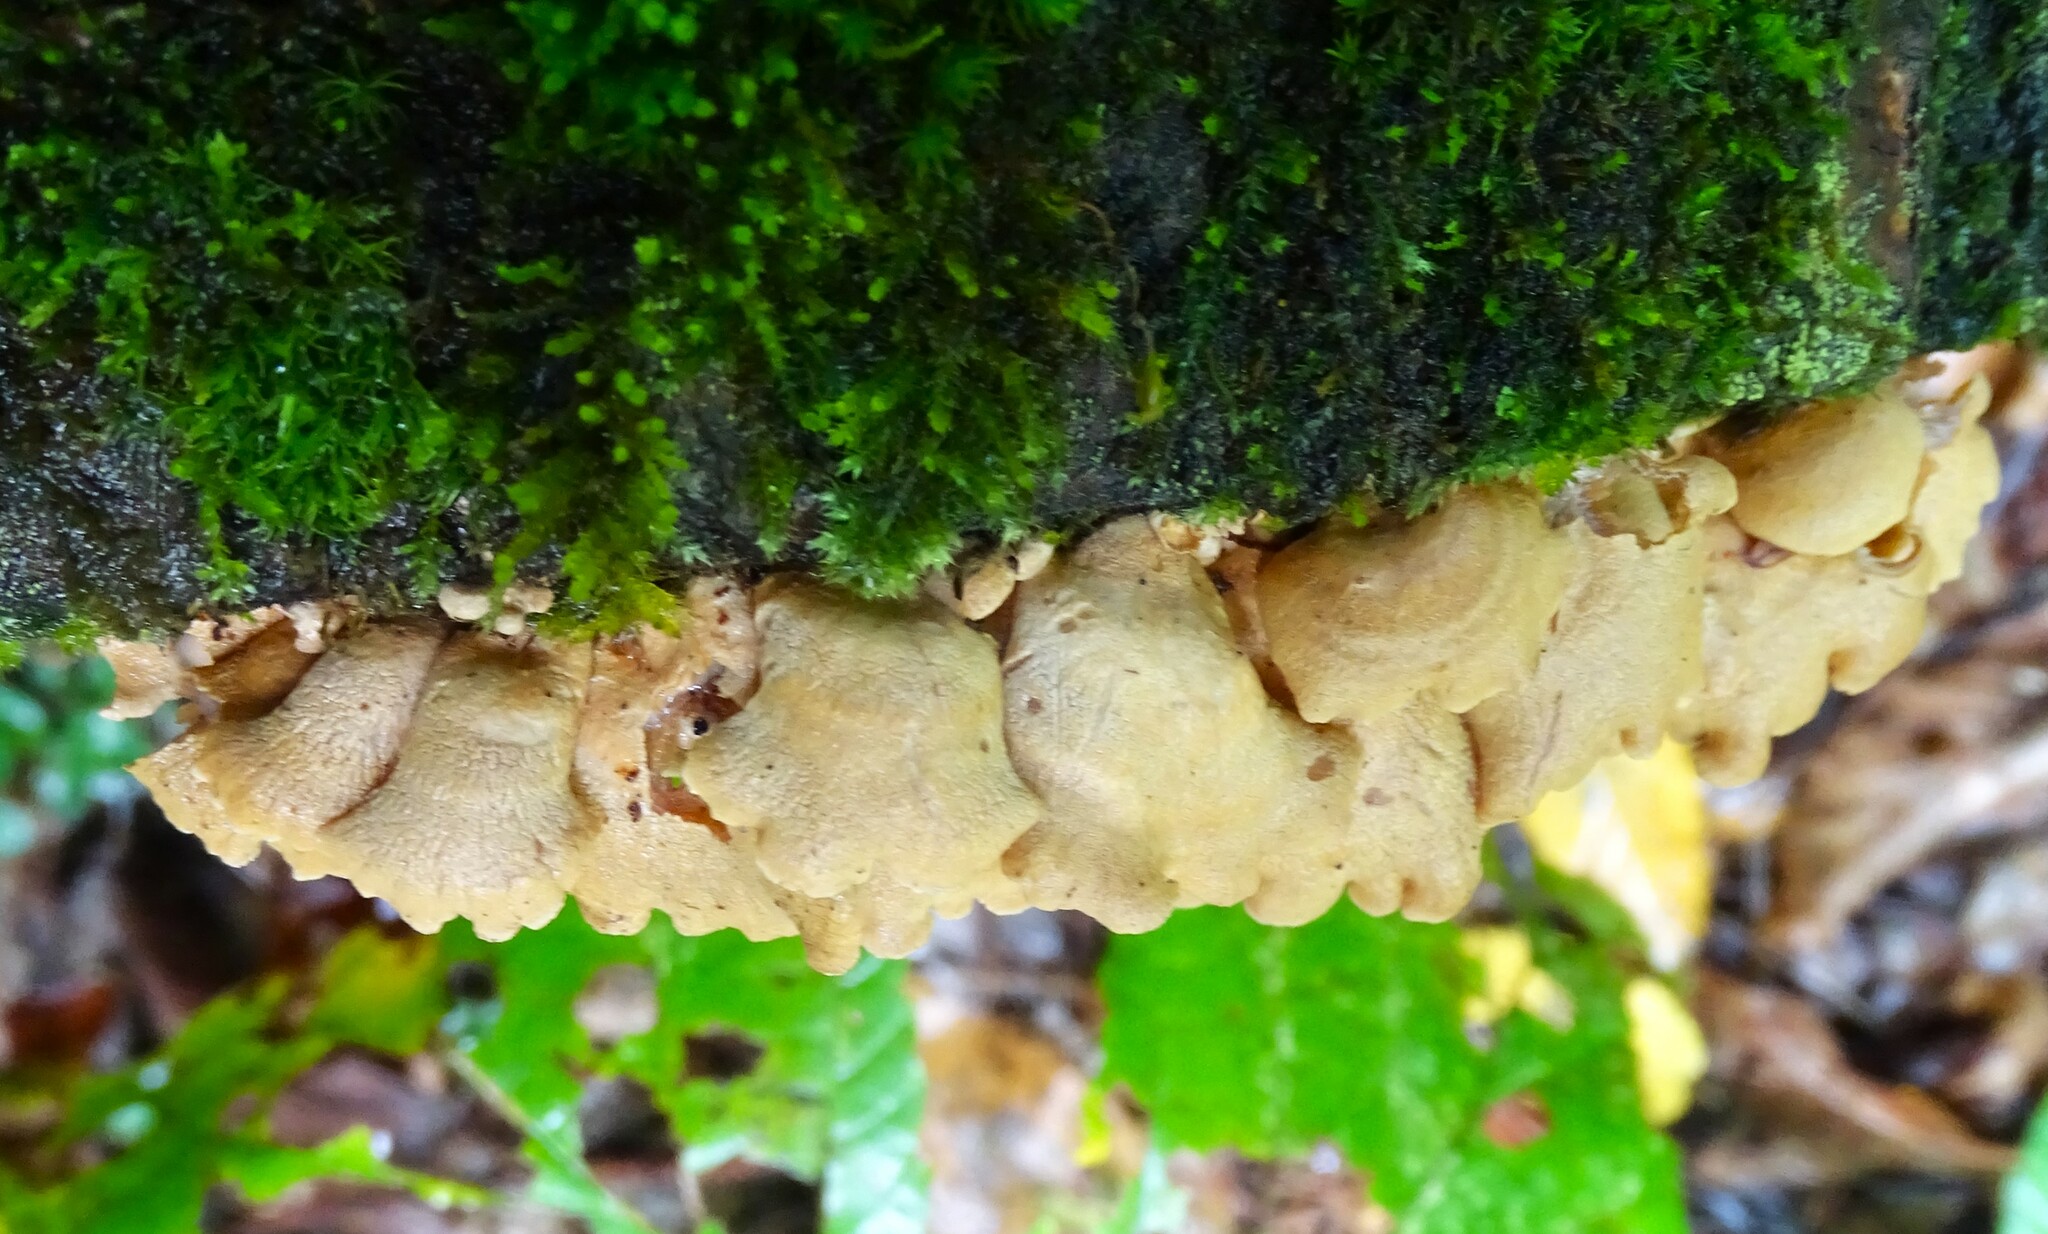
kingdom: Fungi
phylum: Basidiomycota
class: Agaricomycetes
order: Agaricales
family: Mycenaceae
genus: Panellus
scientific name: Panellus stipticus
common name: Bitter oysterling
